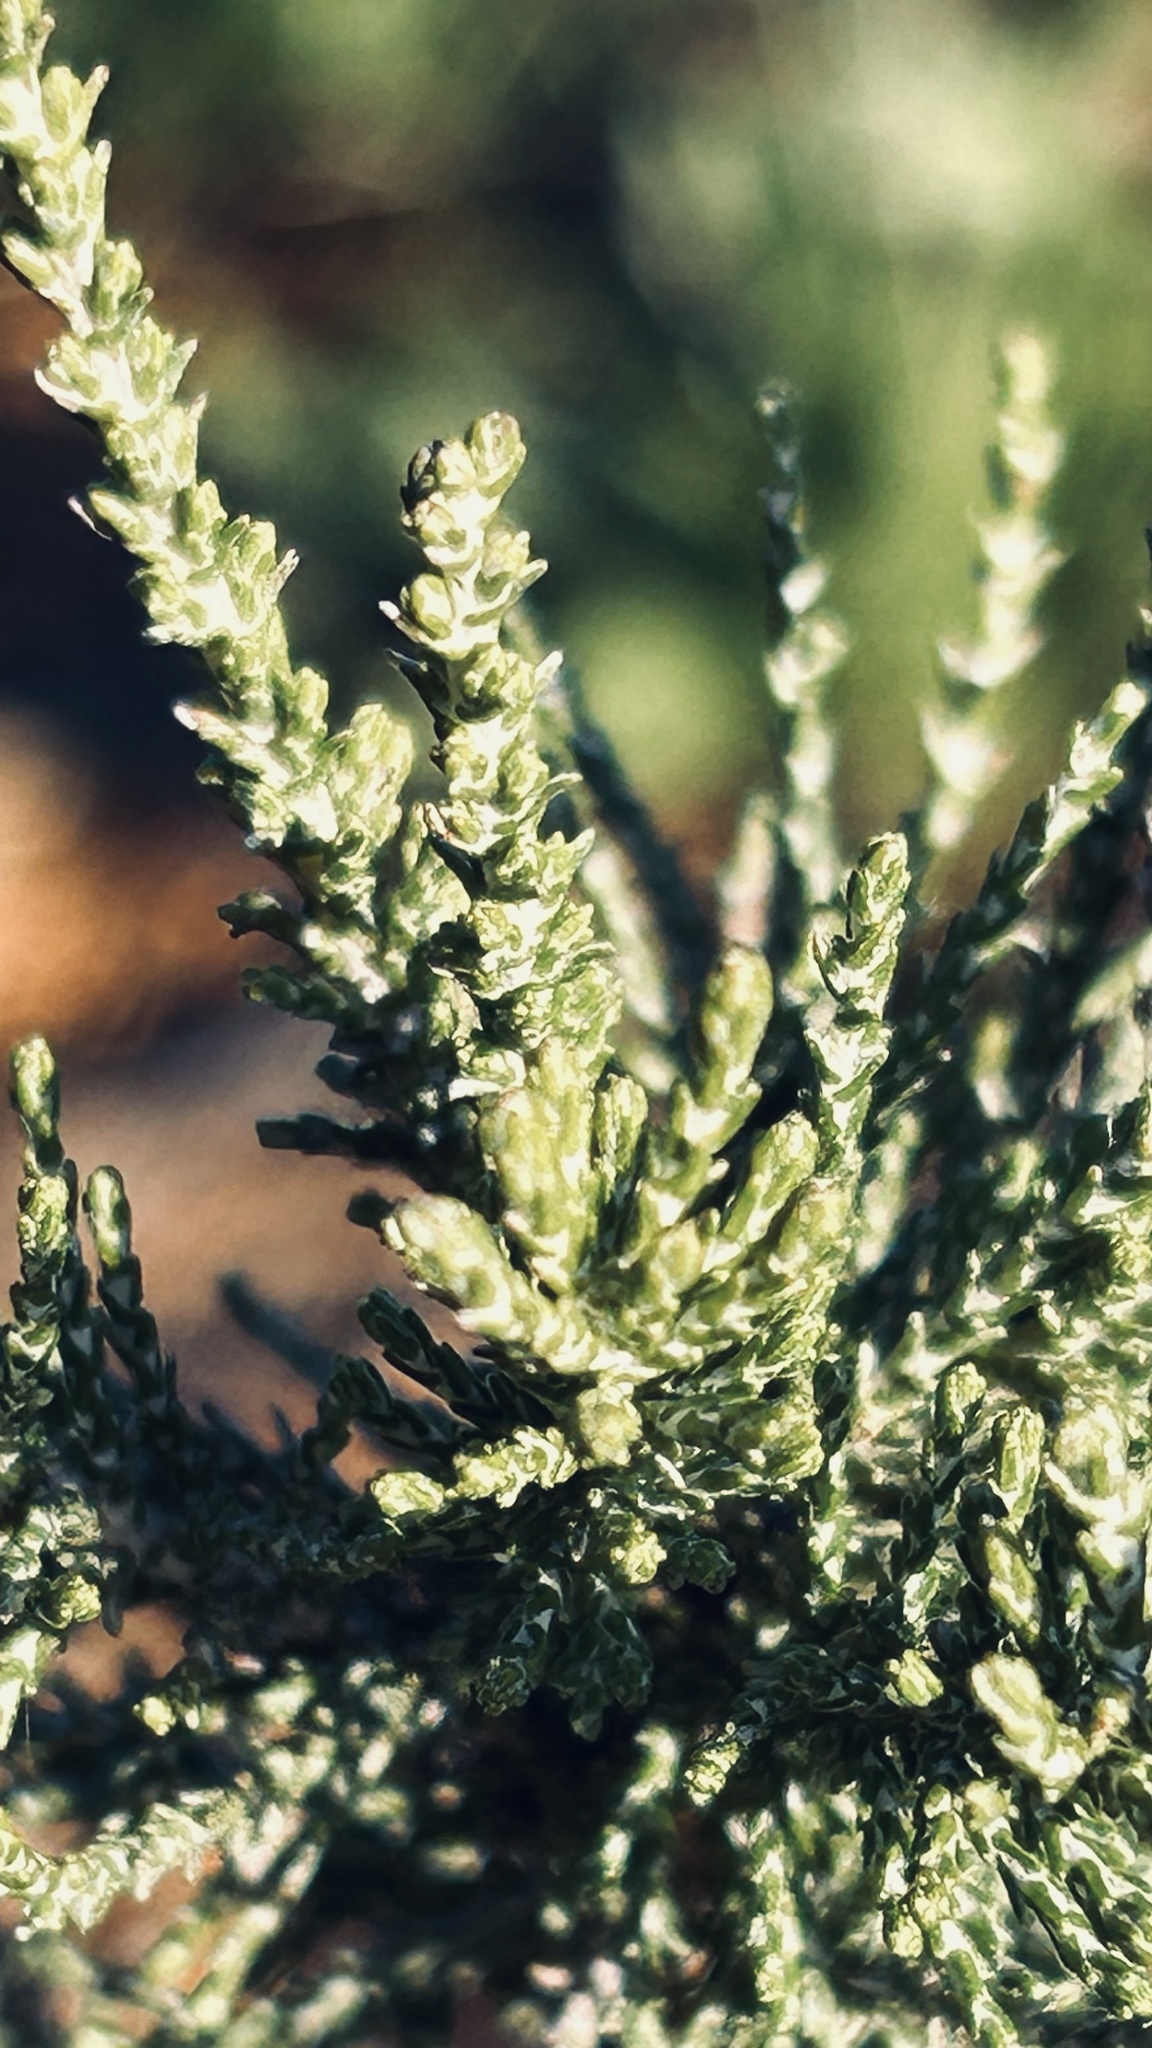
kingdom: Plantae
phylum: Tracheophyta
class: Magnoliopsida
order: Asterales
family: Asteraceae
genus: Dicerothamnus
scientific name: Dicerothamnus rhinocerotis
